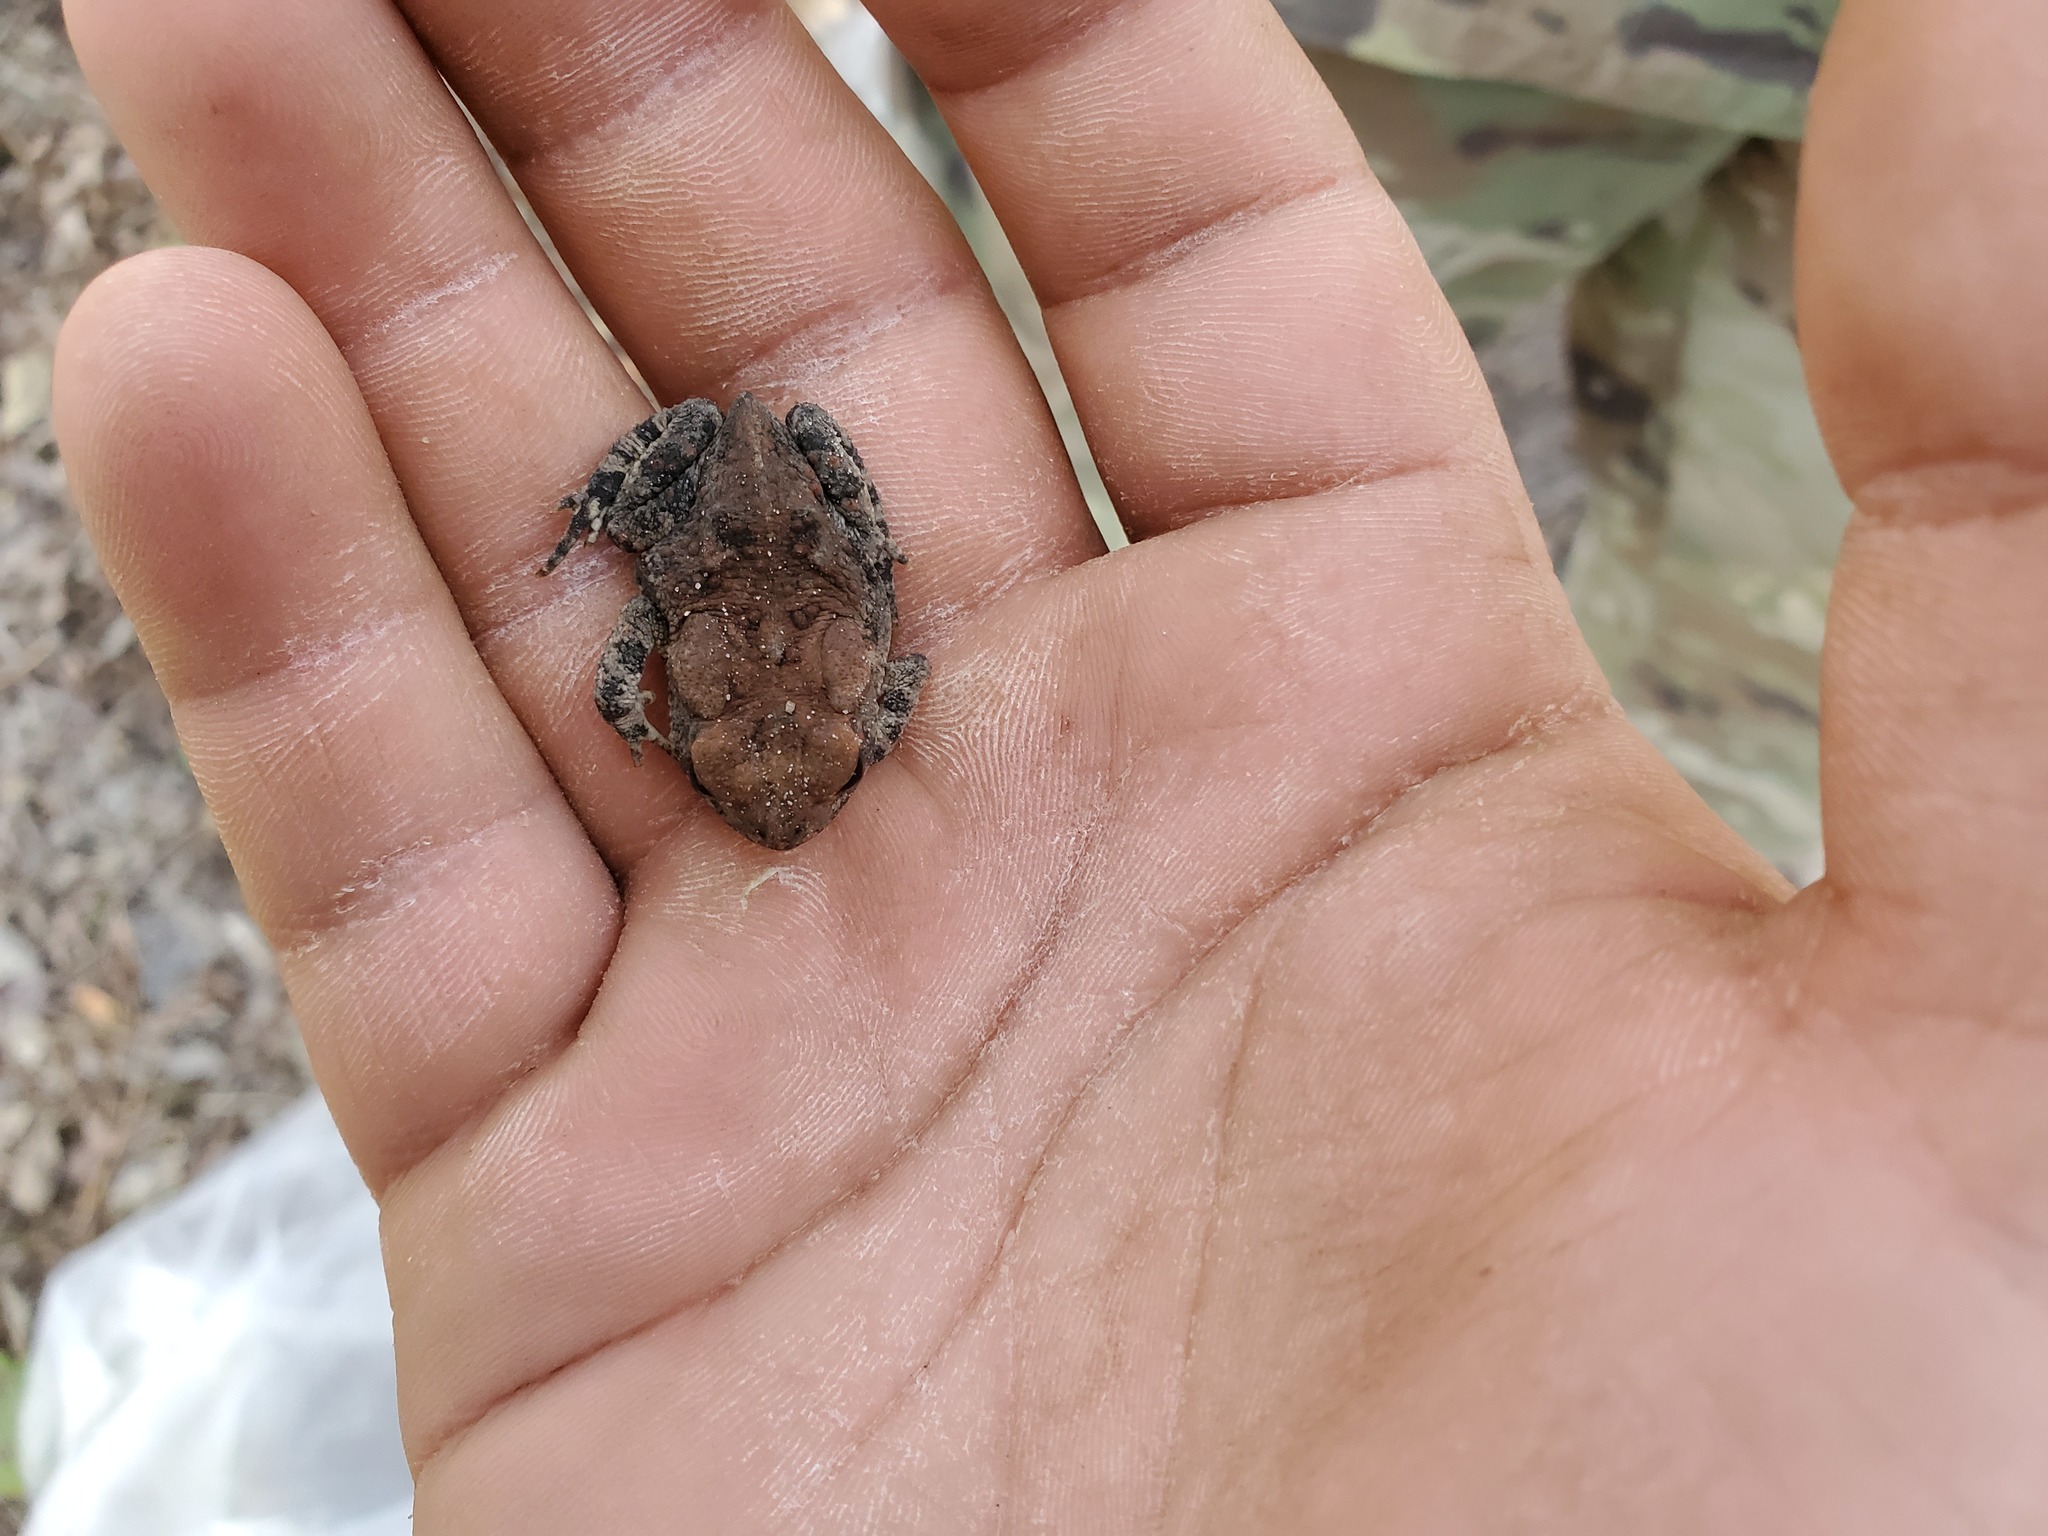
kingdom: Animalia
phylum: Chordata
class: Amphibia
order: Anura
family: Bufonidae
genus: Anaxyrus
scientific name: Anaxyrus fowleri
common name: Fowler's toad
